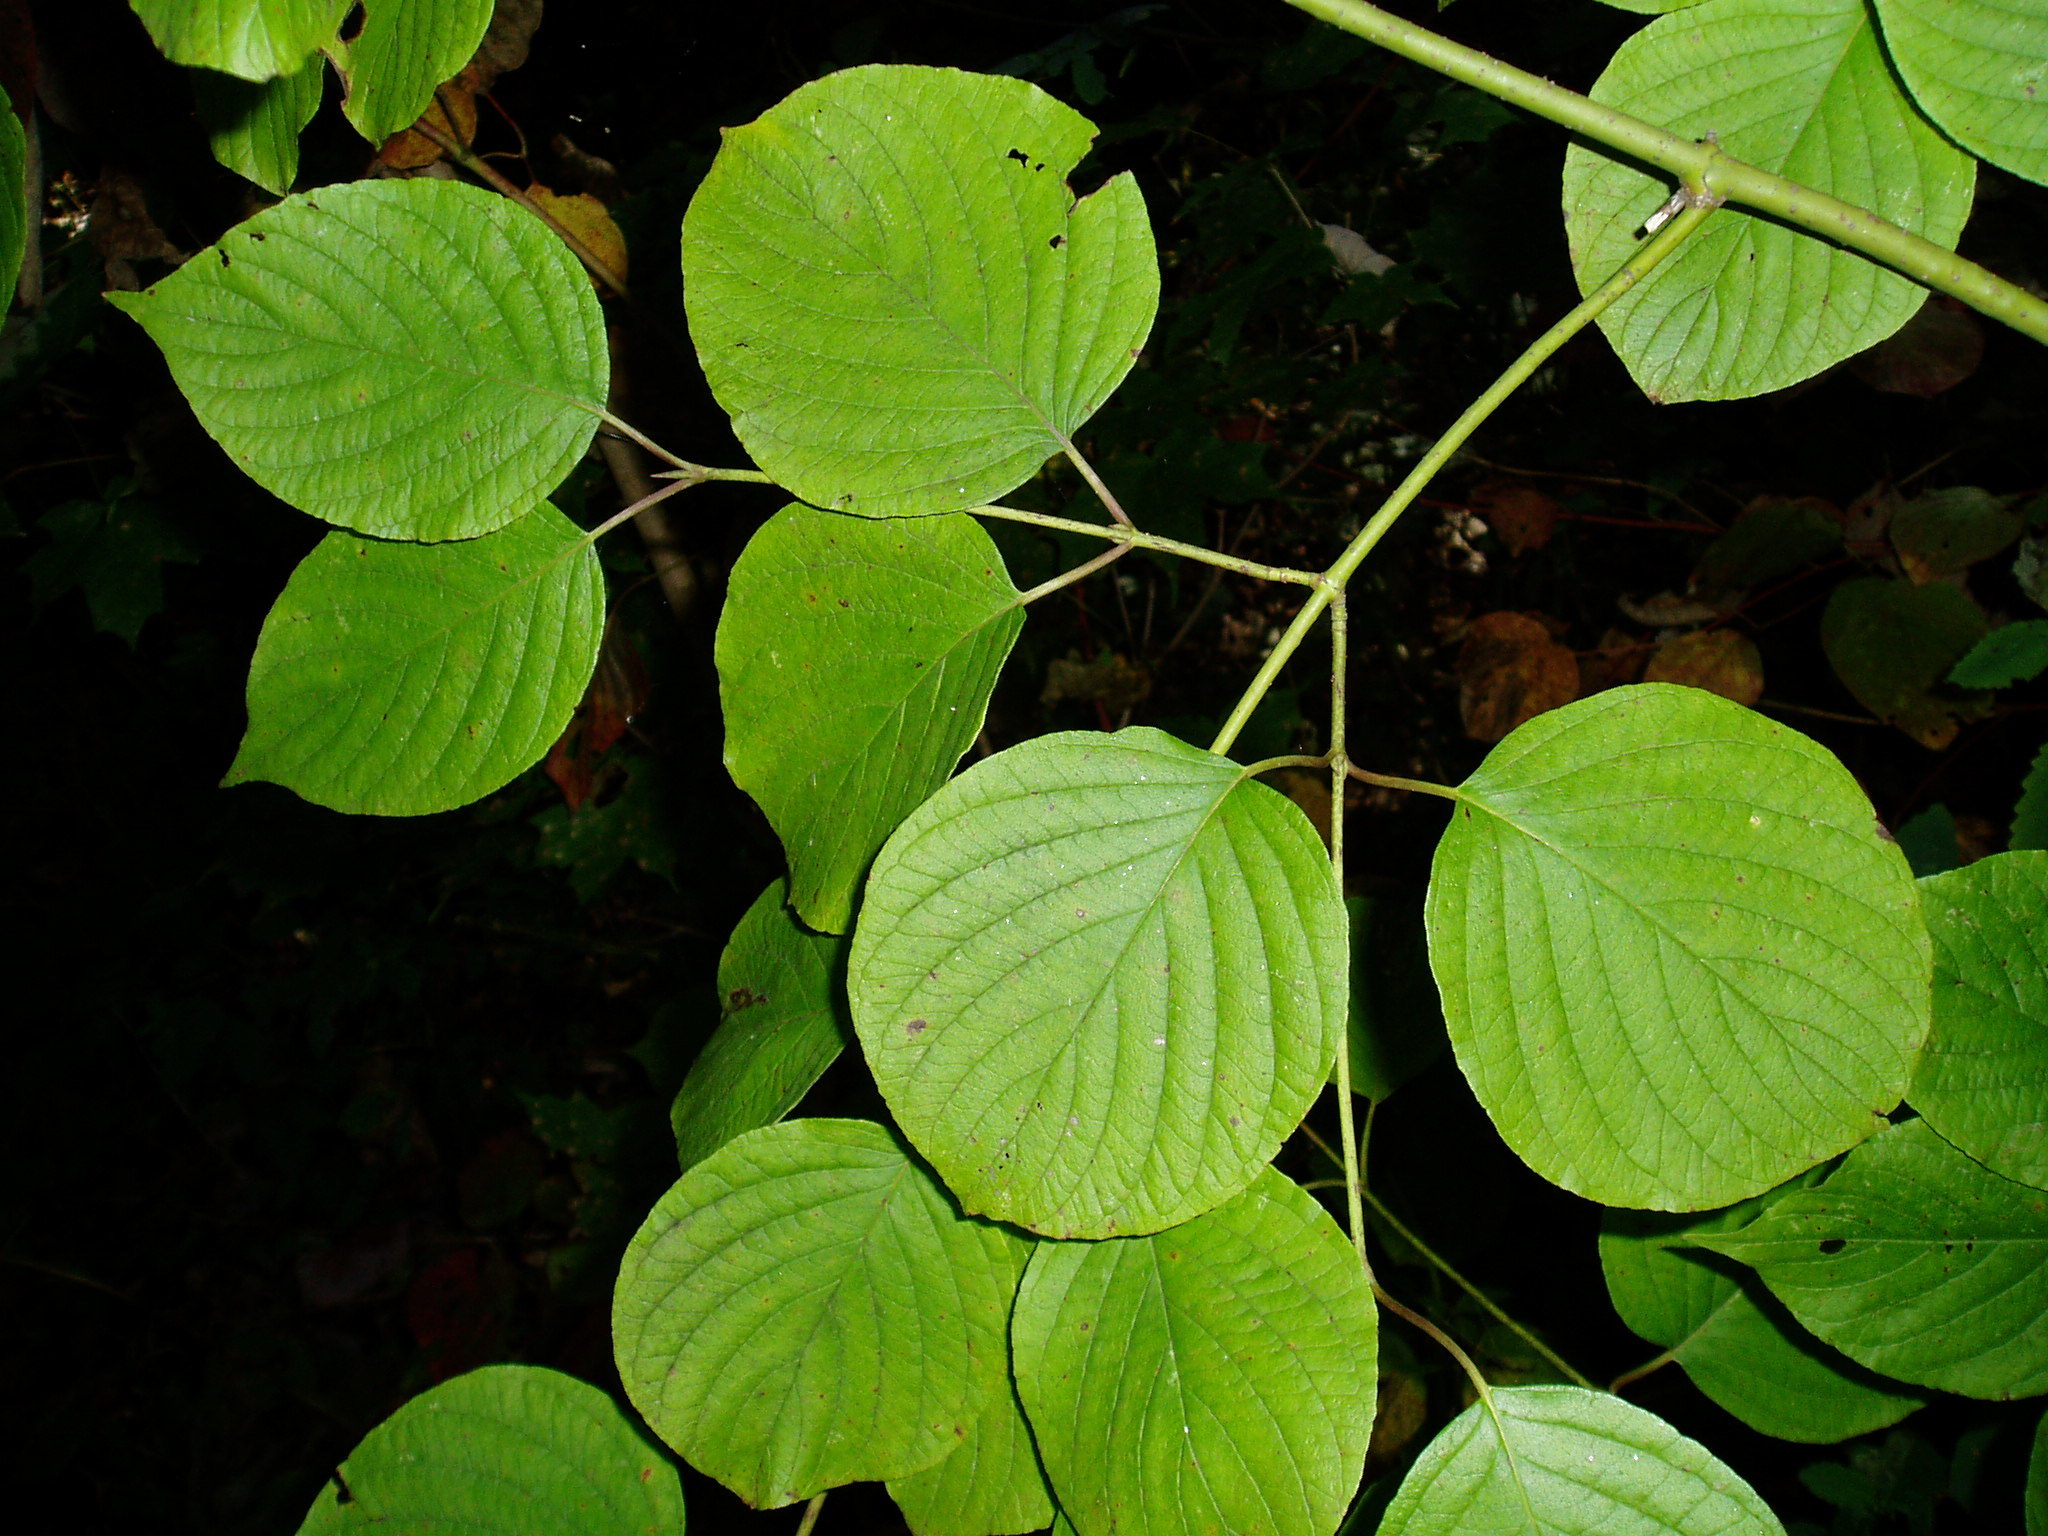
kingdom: Plantae
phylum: Tracheophyta
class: Magnoliopsida
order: Cornales
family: Cornaceae
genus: Cornus
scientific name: Cornus rugosa
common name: Round-leaf dogwood
